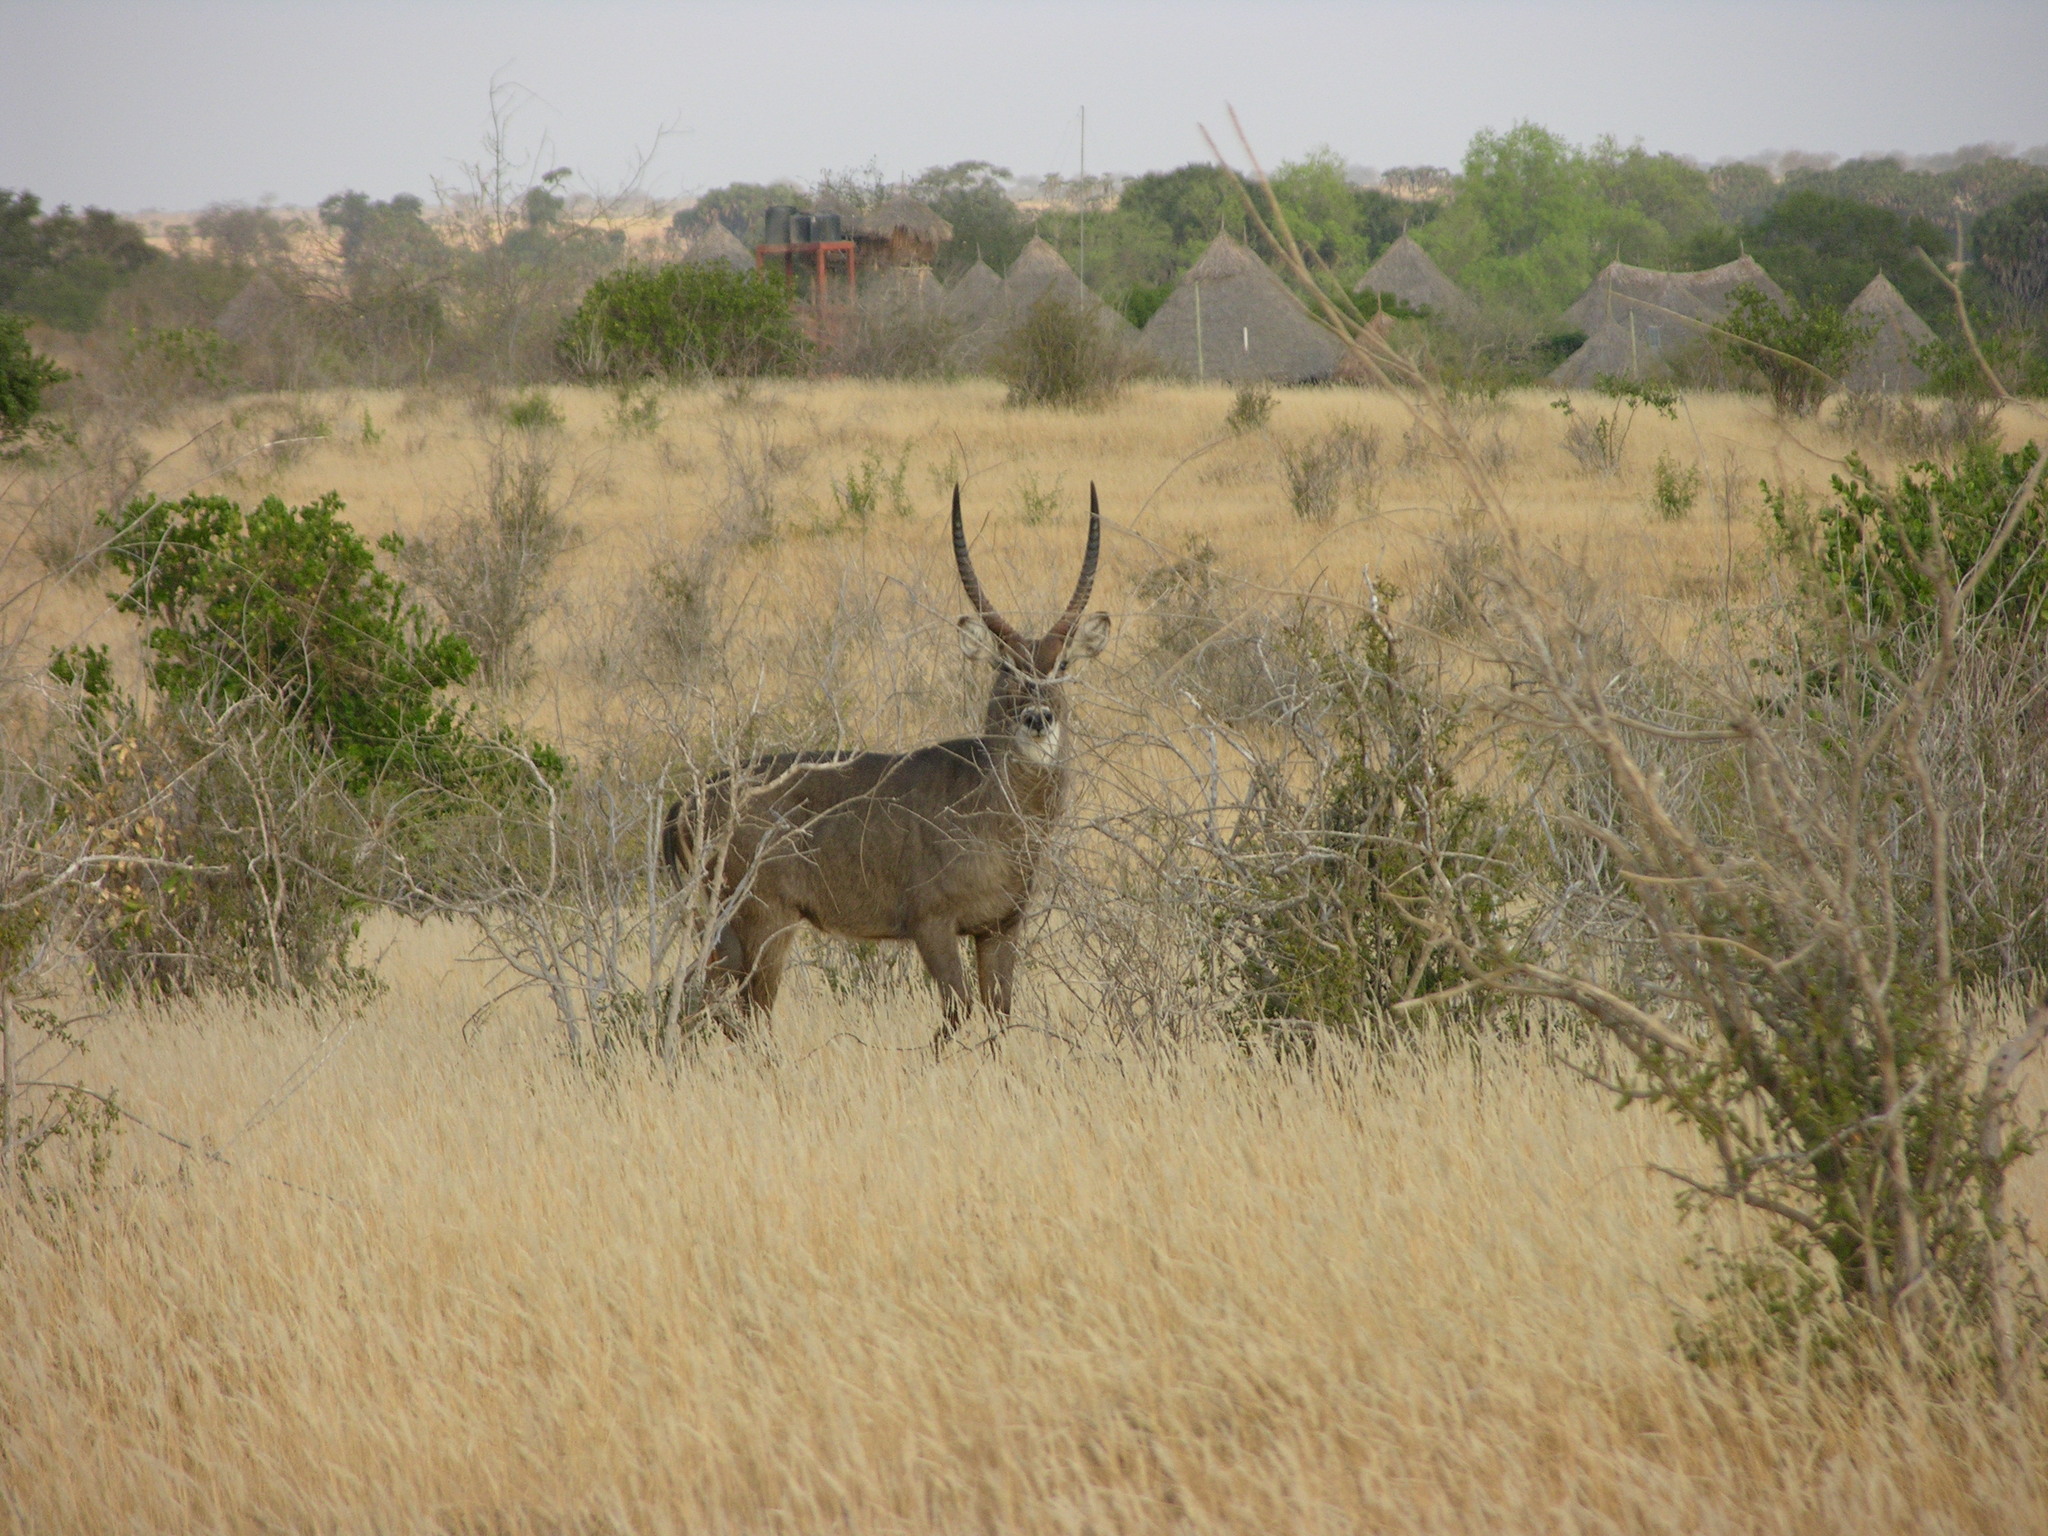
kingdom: Animalia
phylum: Chordata
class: Mammalia
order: Artiodactyla
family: Bovidae
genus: Kobus
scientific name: Kobus ellipsiprymnus
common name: Waterbuck
